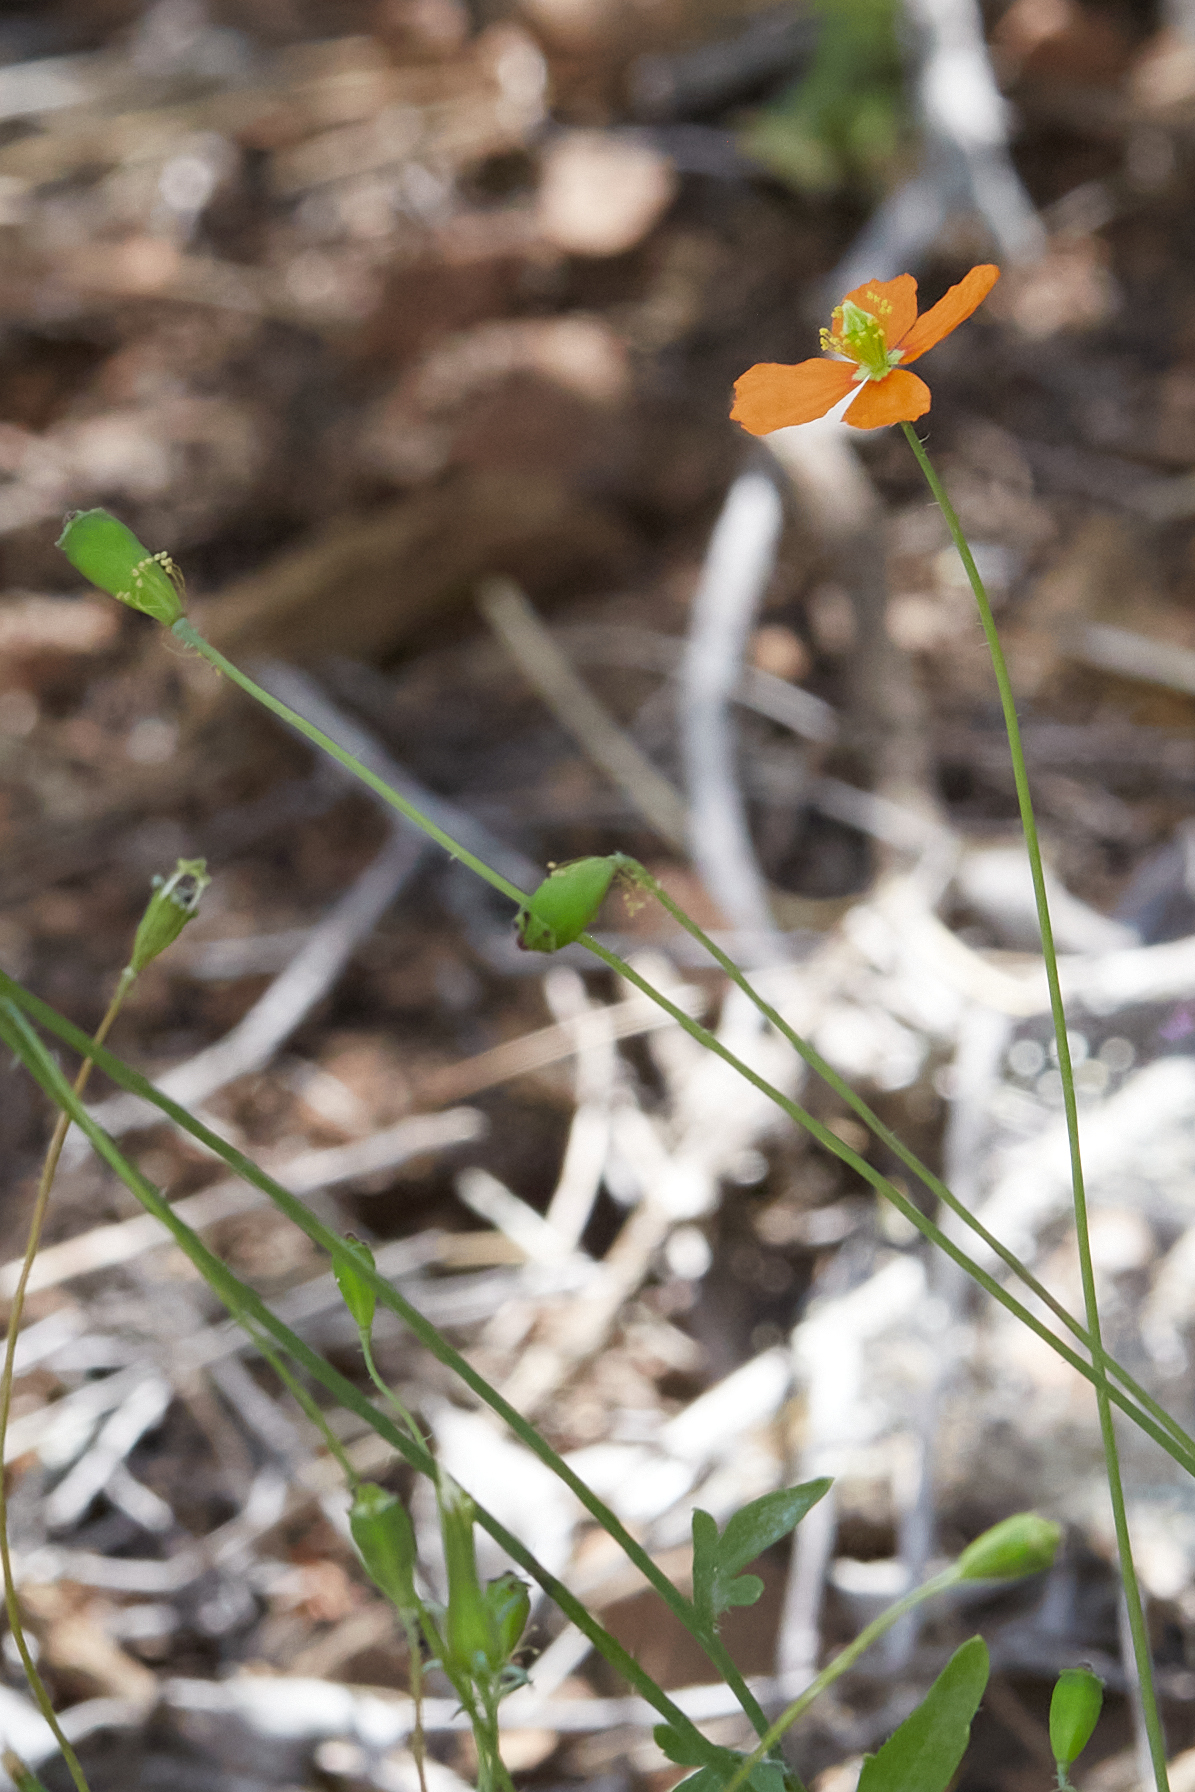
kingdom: Plantae
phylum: Tracheophyta
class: Magnoliopsida
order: Ranunculales
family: Papaveraceae
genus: Papaver
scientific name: Papaver californicum
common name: Fire poppy
